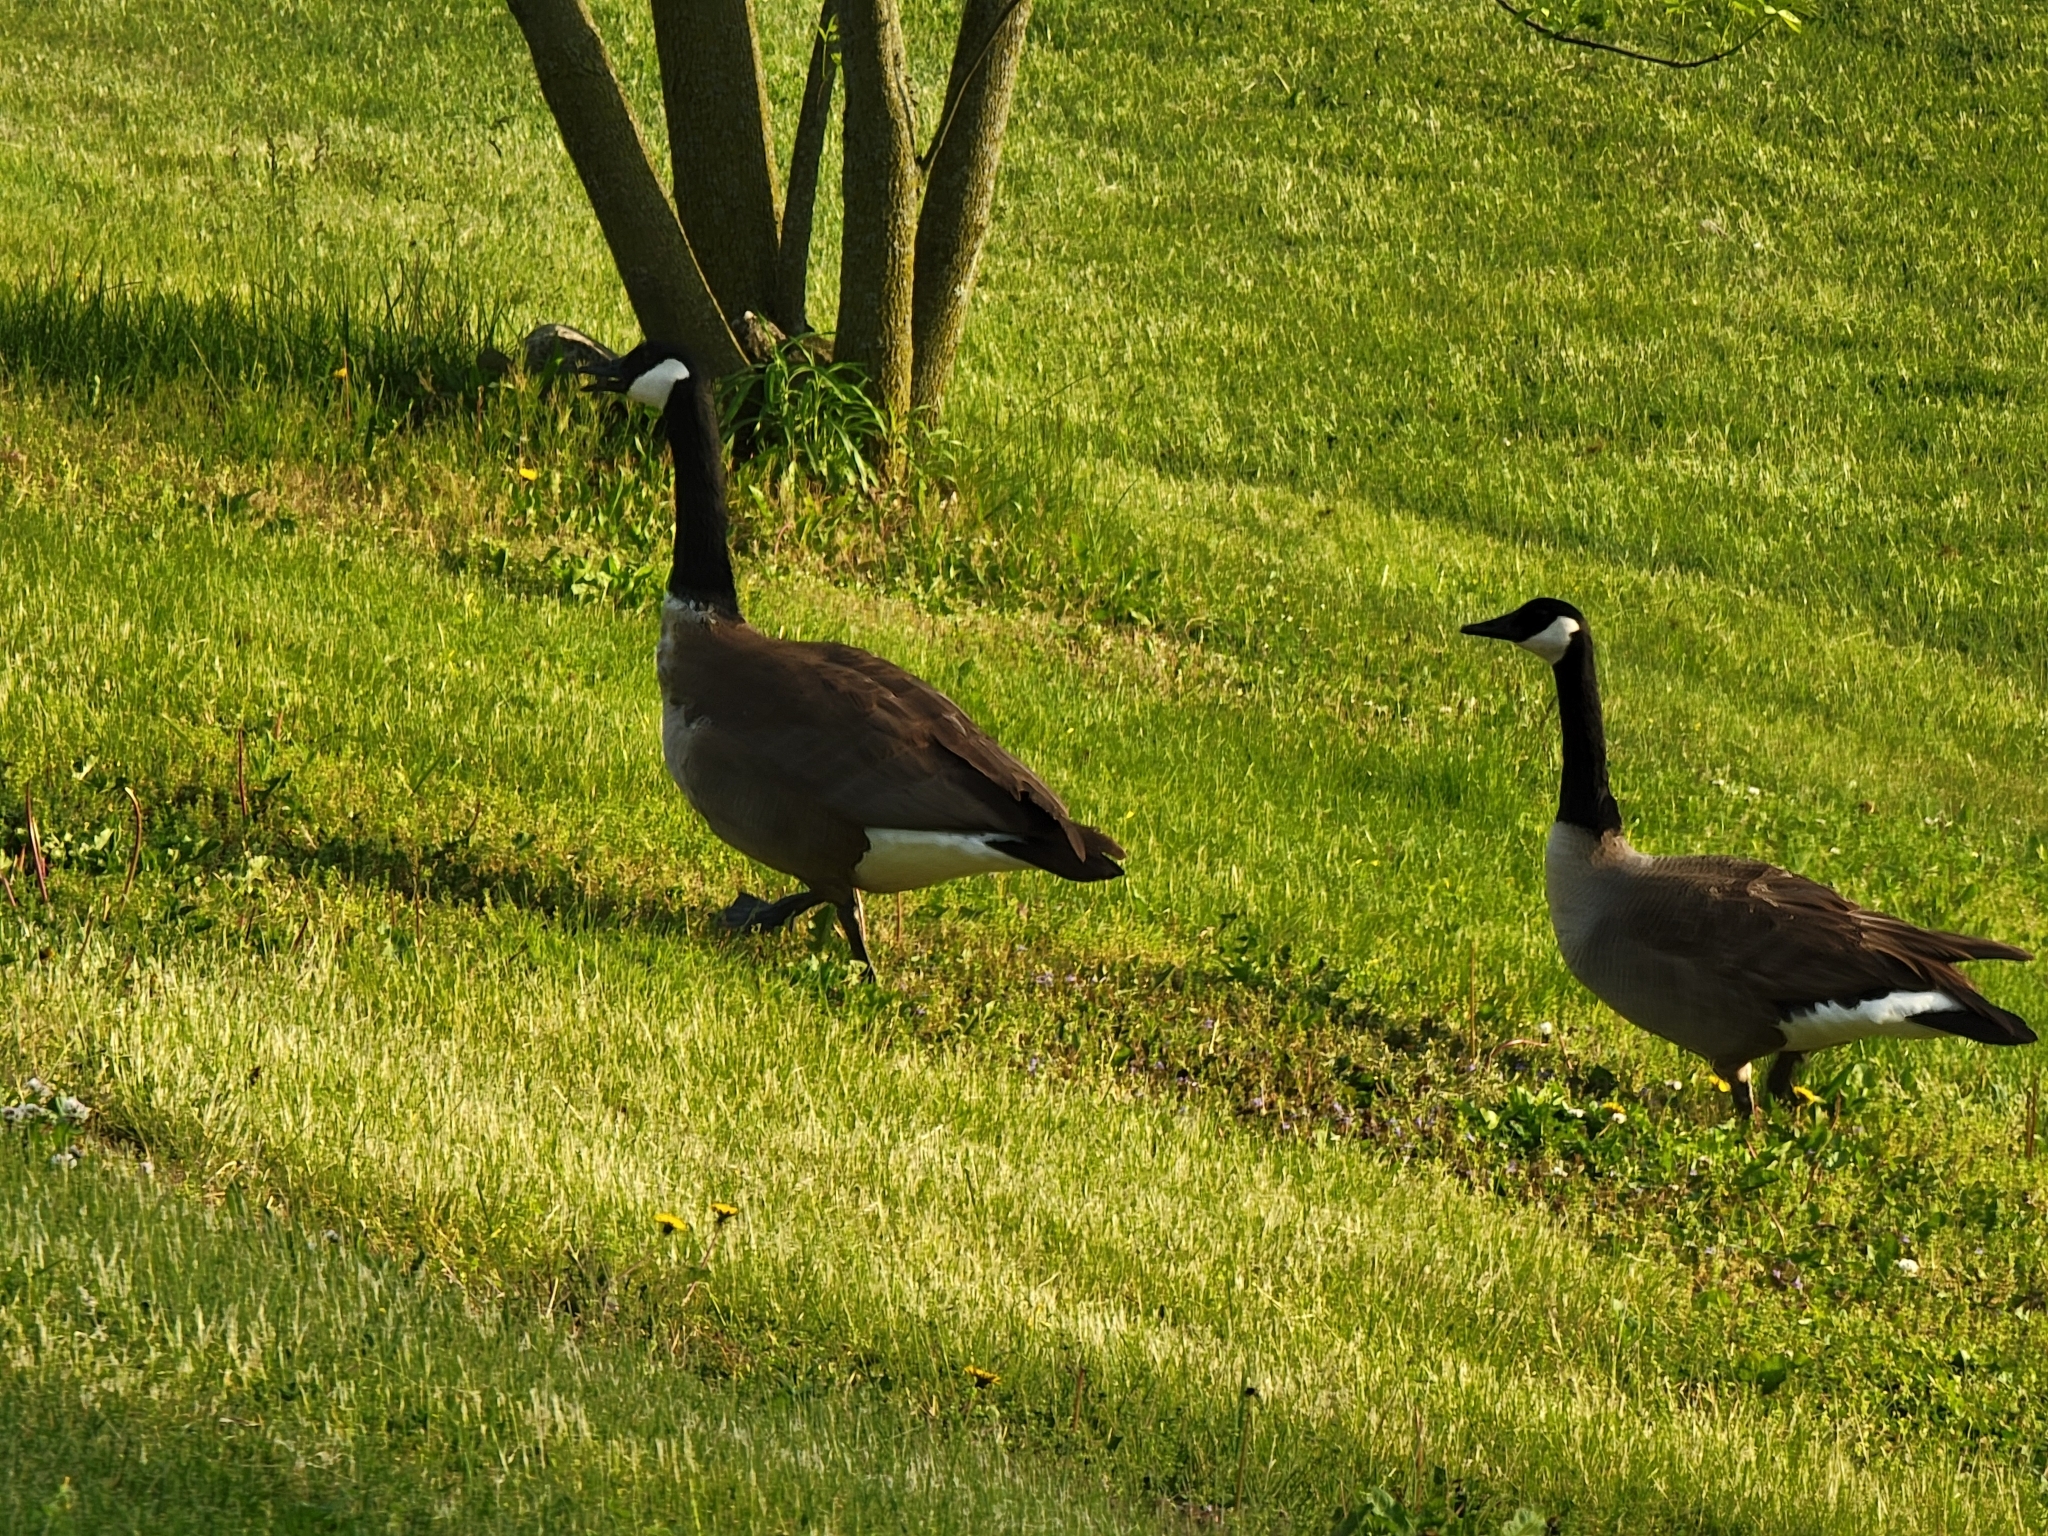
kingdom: Animalia
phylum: Chordata
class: Aves
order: Anseriformes
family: Anatidae
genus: Branta
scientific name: Branta canadensis
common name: Canada goose
